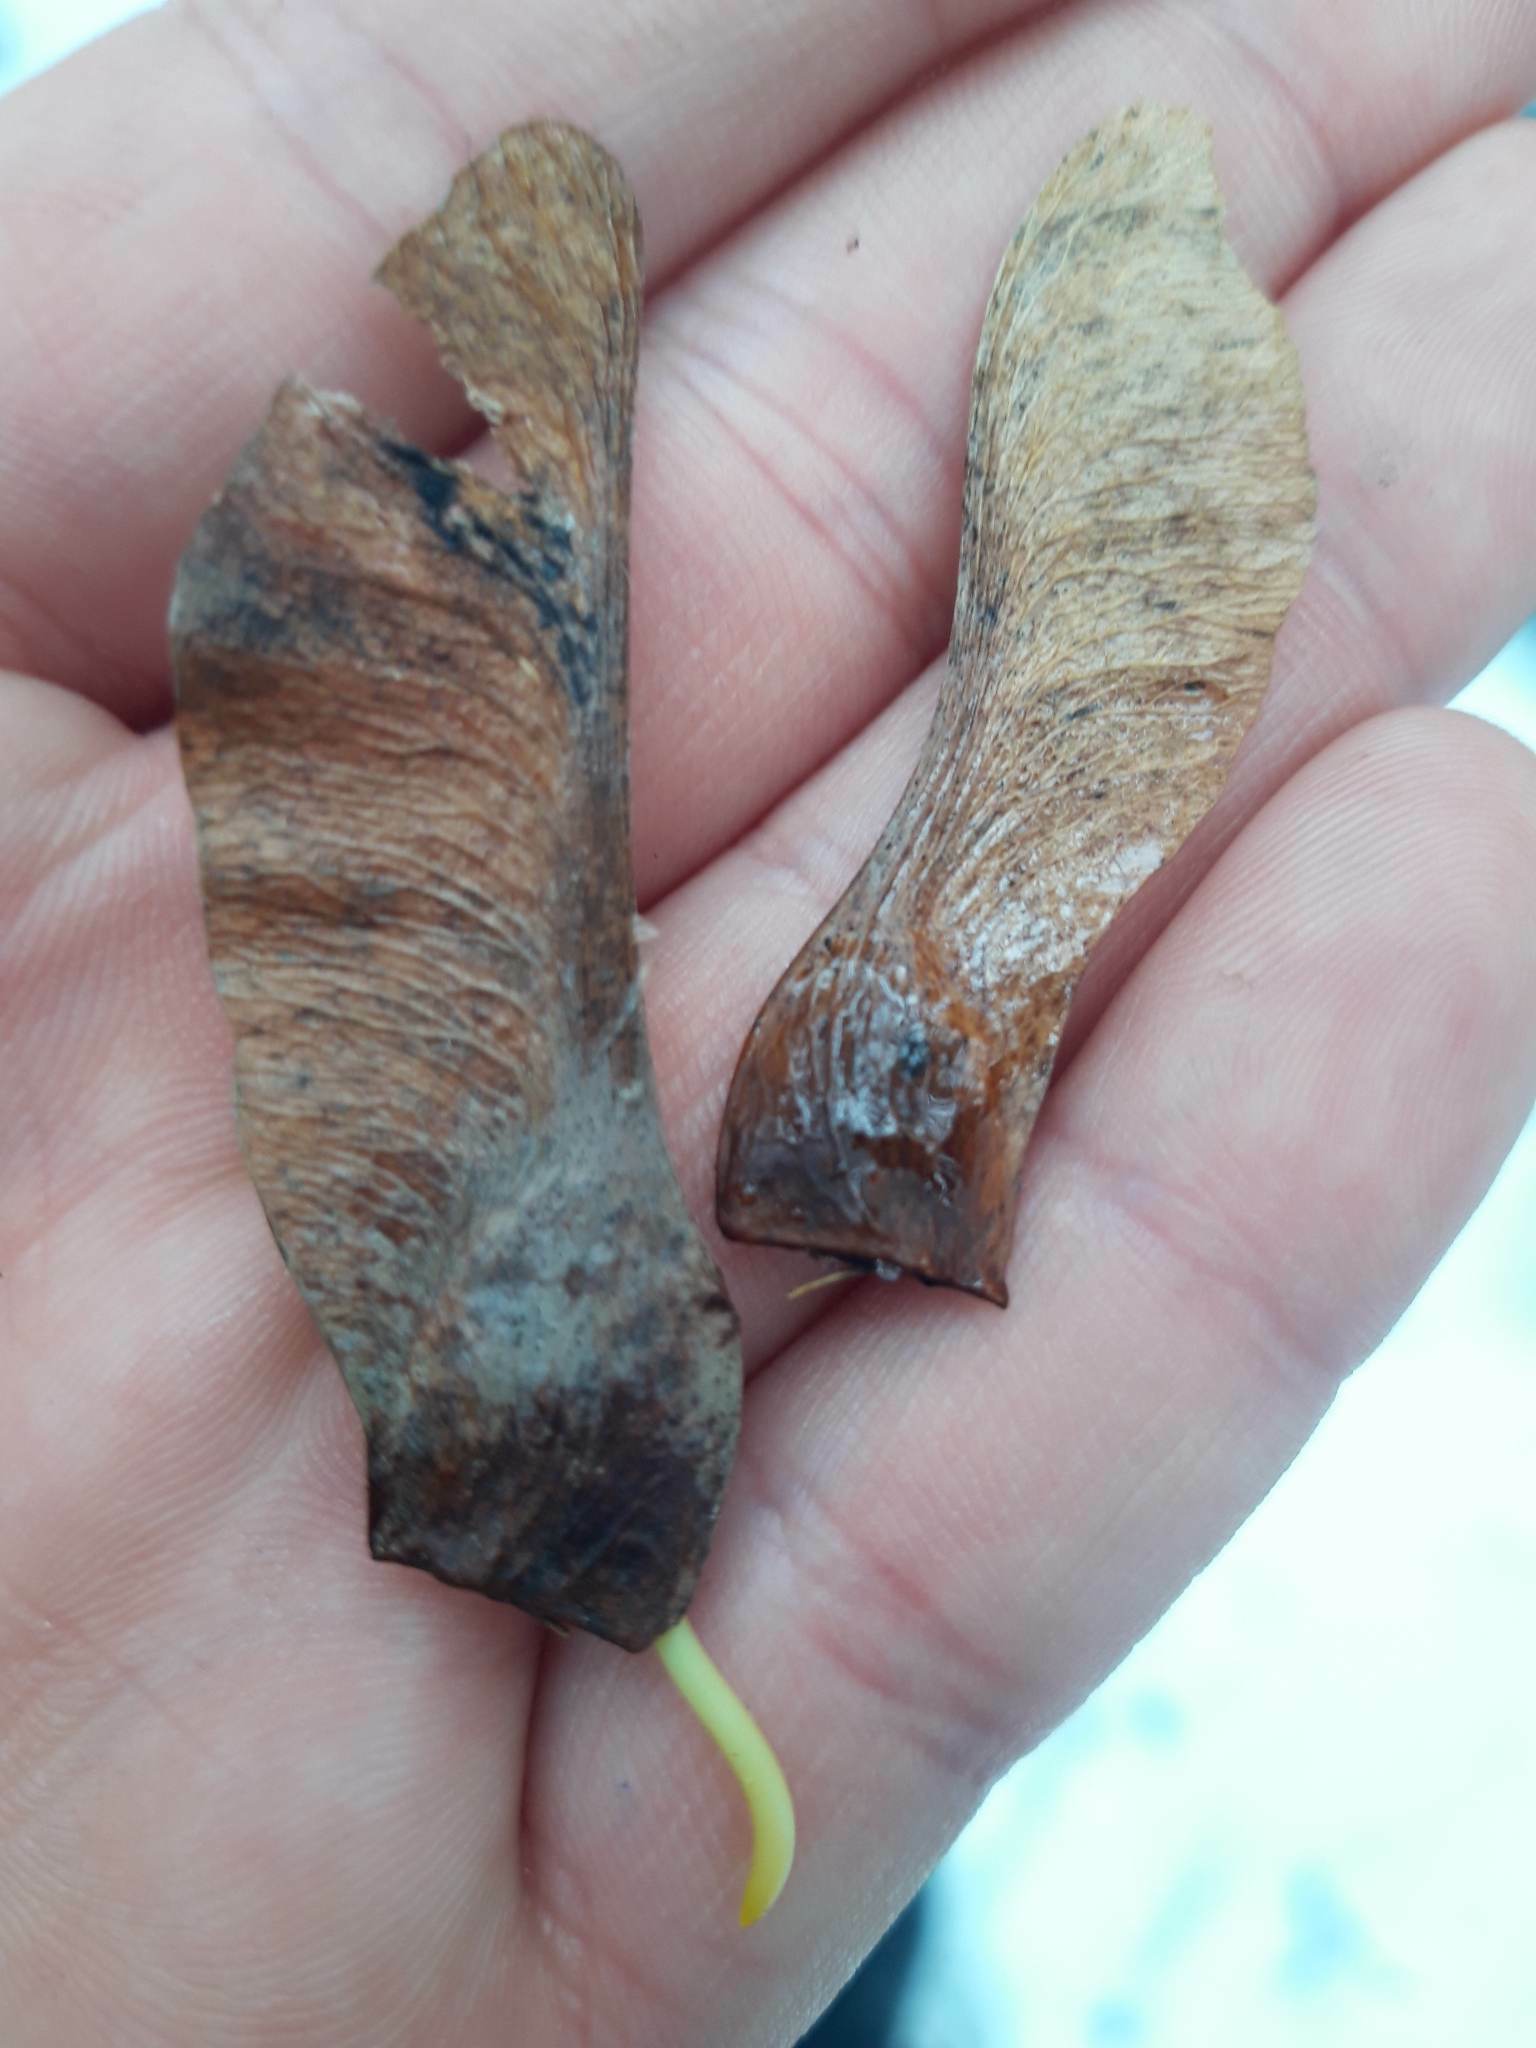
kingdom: Plantae
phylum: Tracheophyta
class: Magnoliopsida
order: Sapindales
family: Sapindaceae
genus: Acer
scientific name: Acer platanoides
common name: Norway maple
